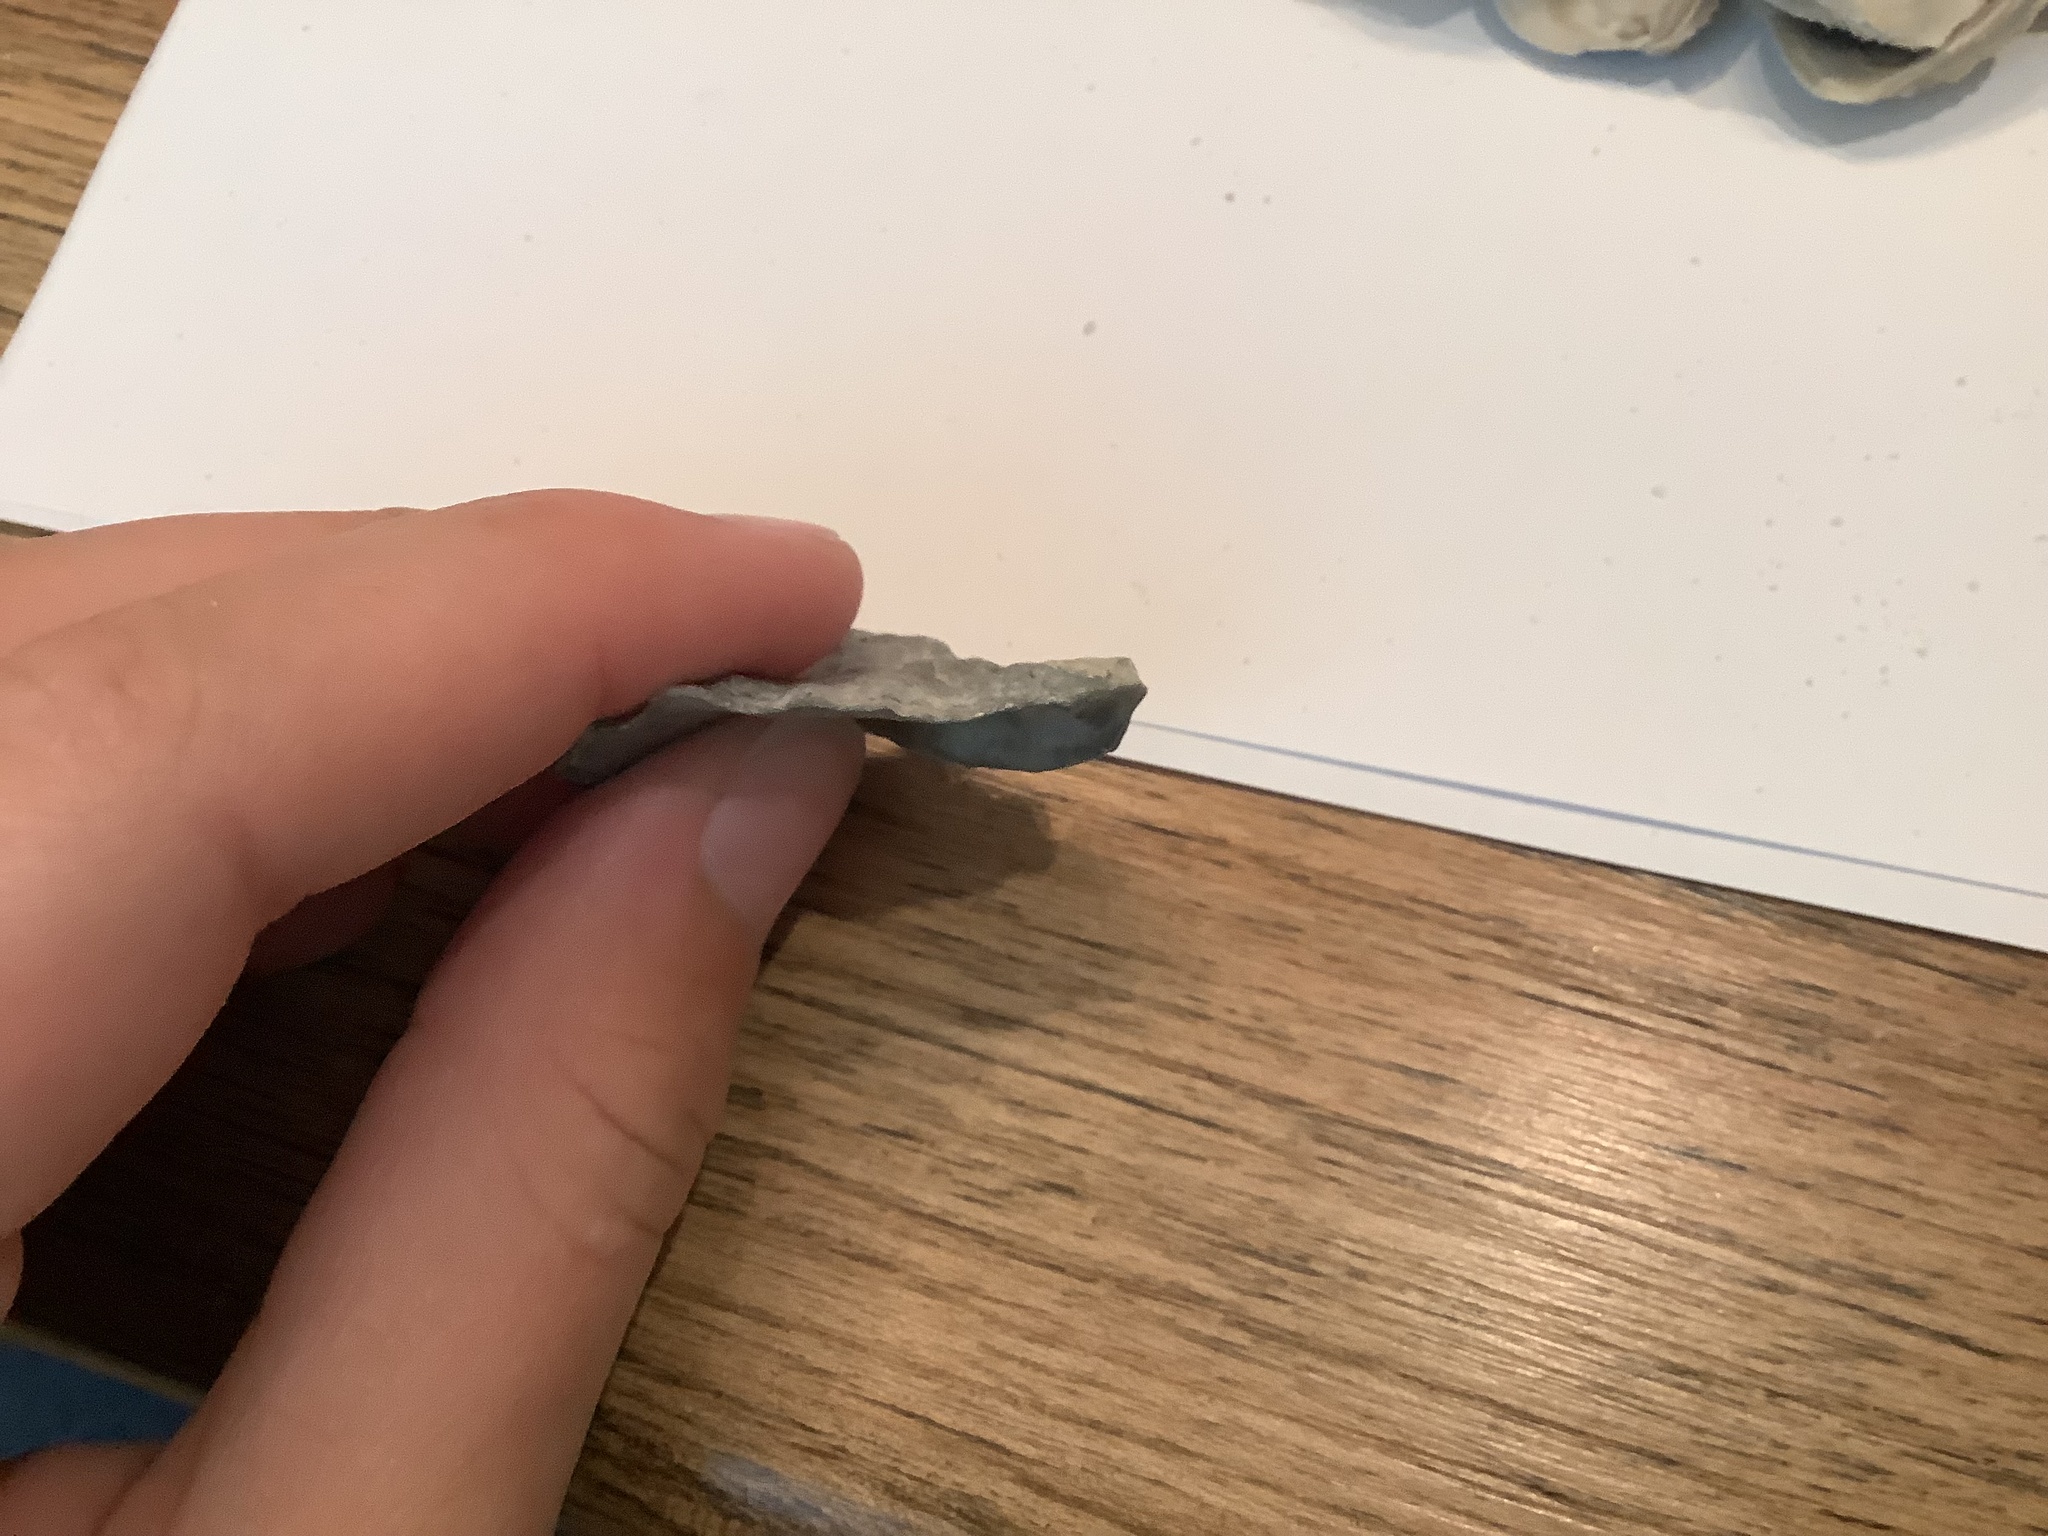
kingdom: Animalia
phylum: Mollusca
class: Bivalvia
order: Ostreida
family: Ostreidae
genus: Crassostrea
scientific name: Crassostrea virginica
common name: American oyster
